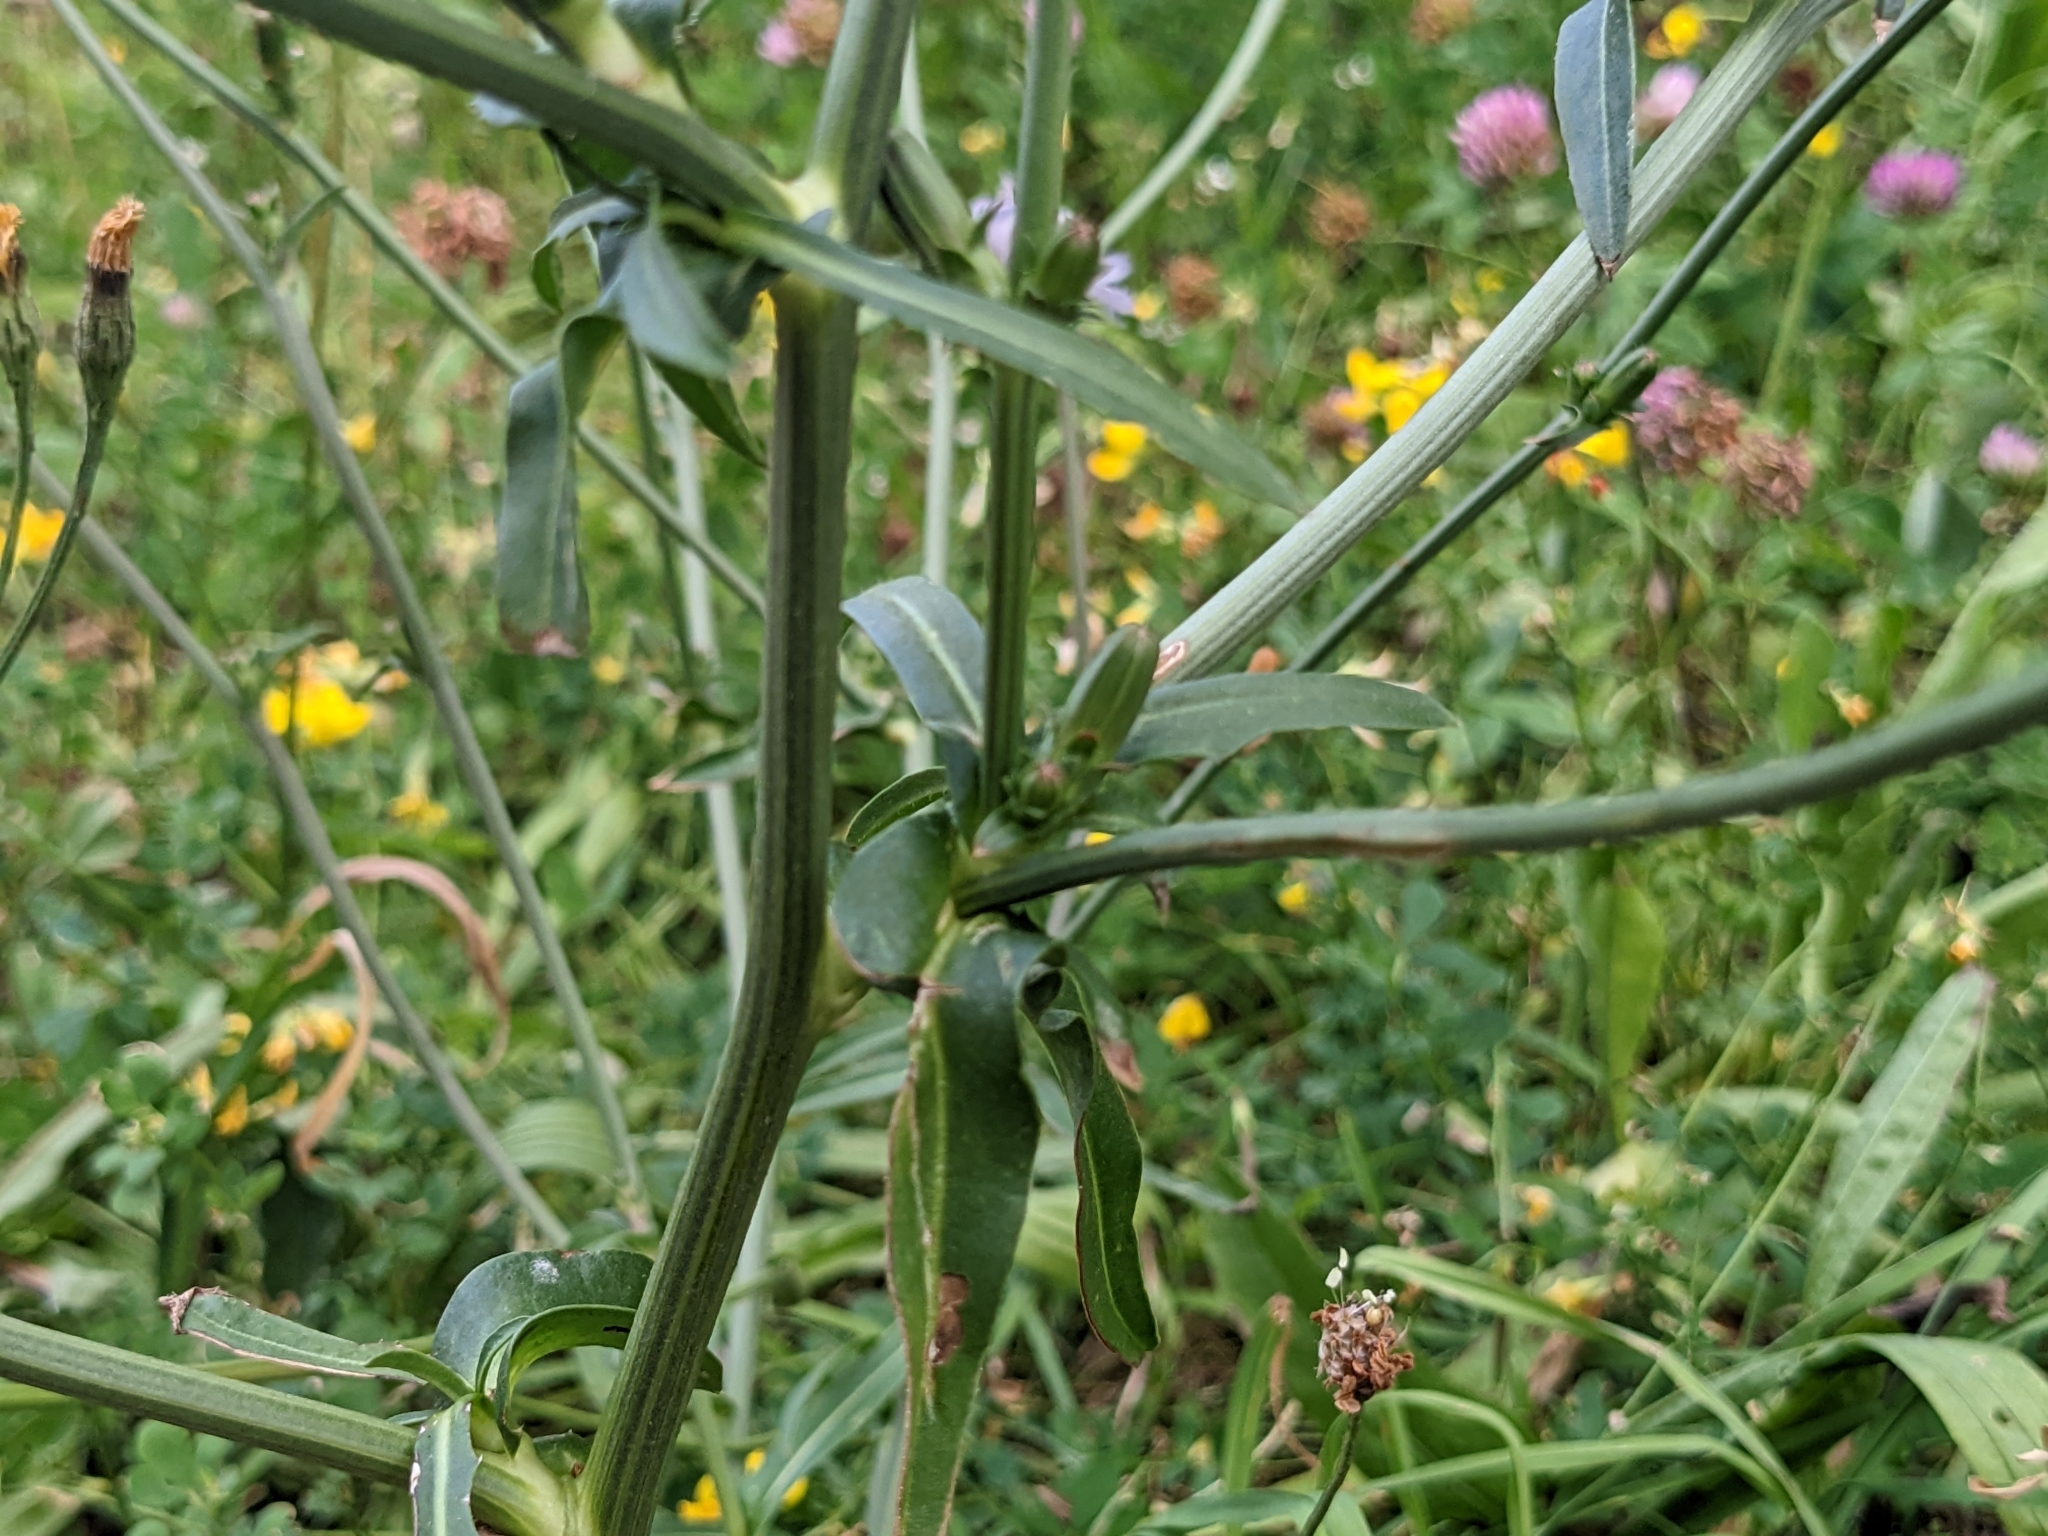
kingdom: Plantae
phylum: Tracheophyta
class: Magnoliopsida
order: Asterales
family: Asteraceae
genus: Cichorium
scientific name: Cichorium intybus
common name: Chicory
